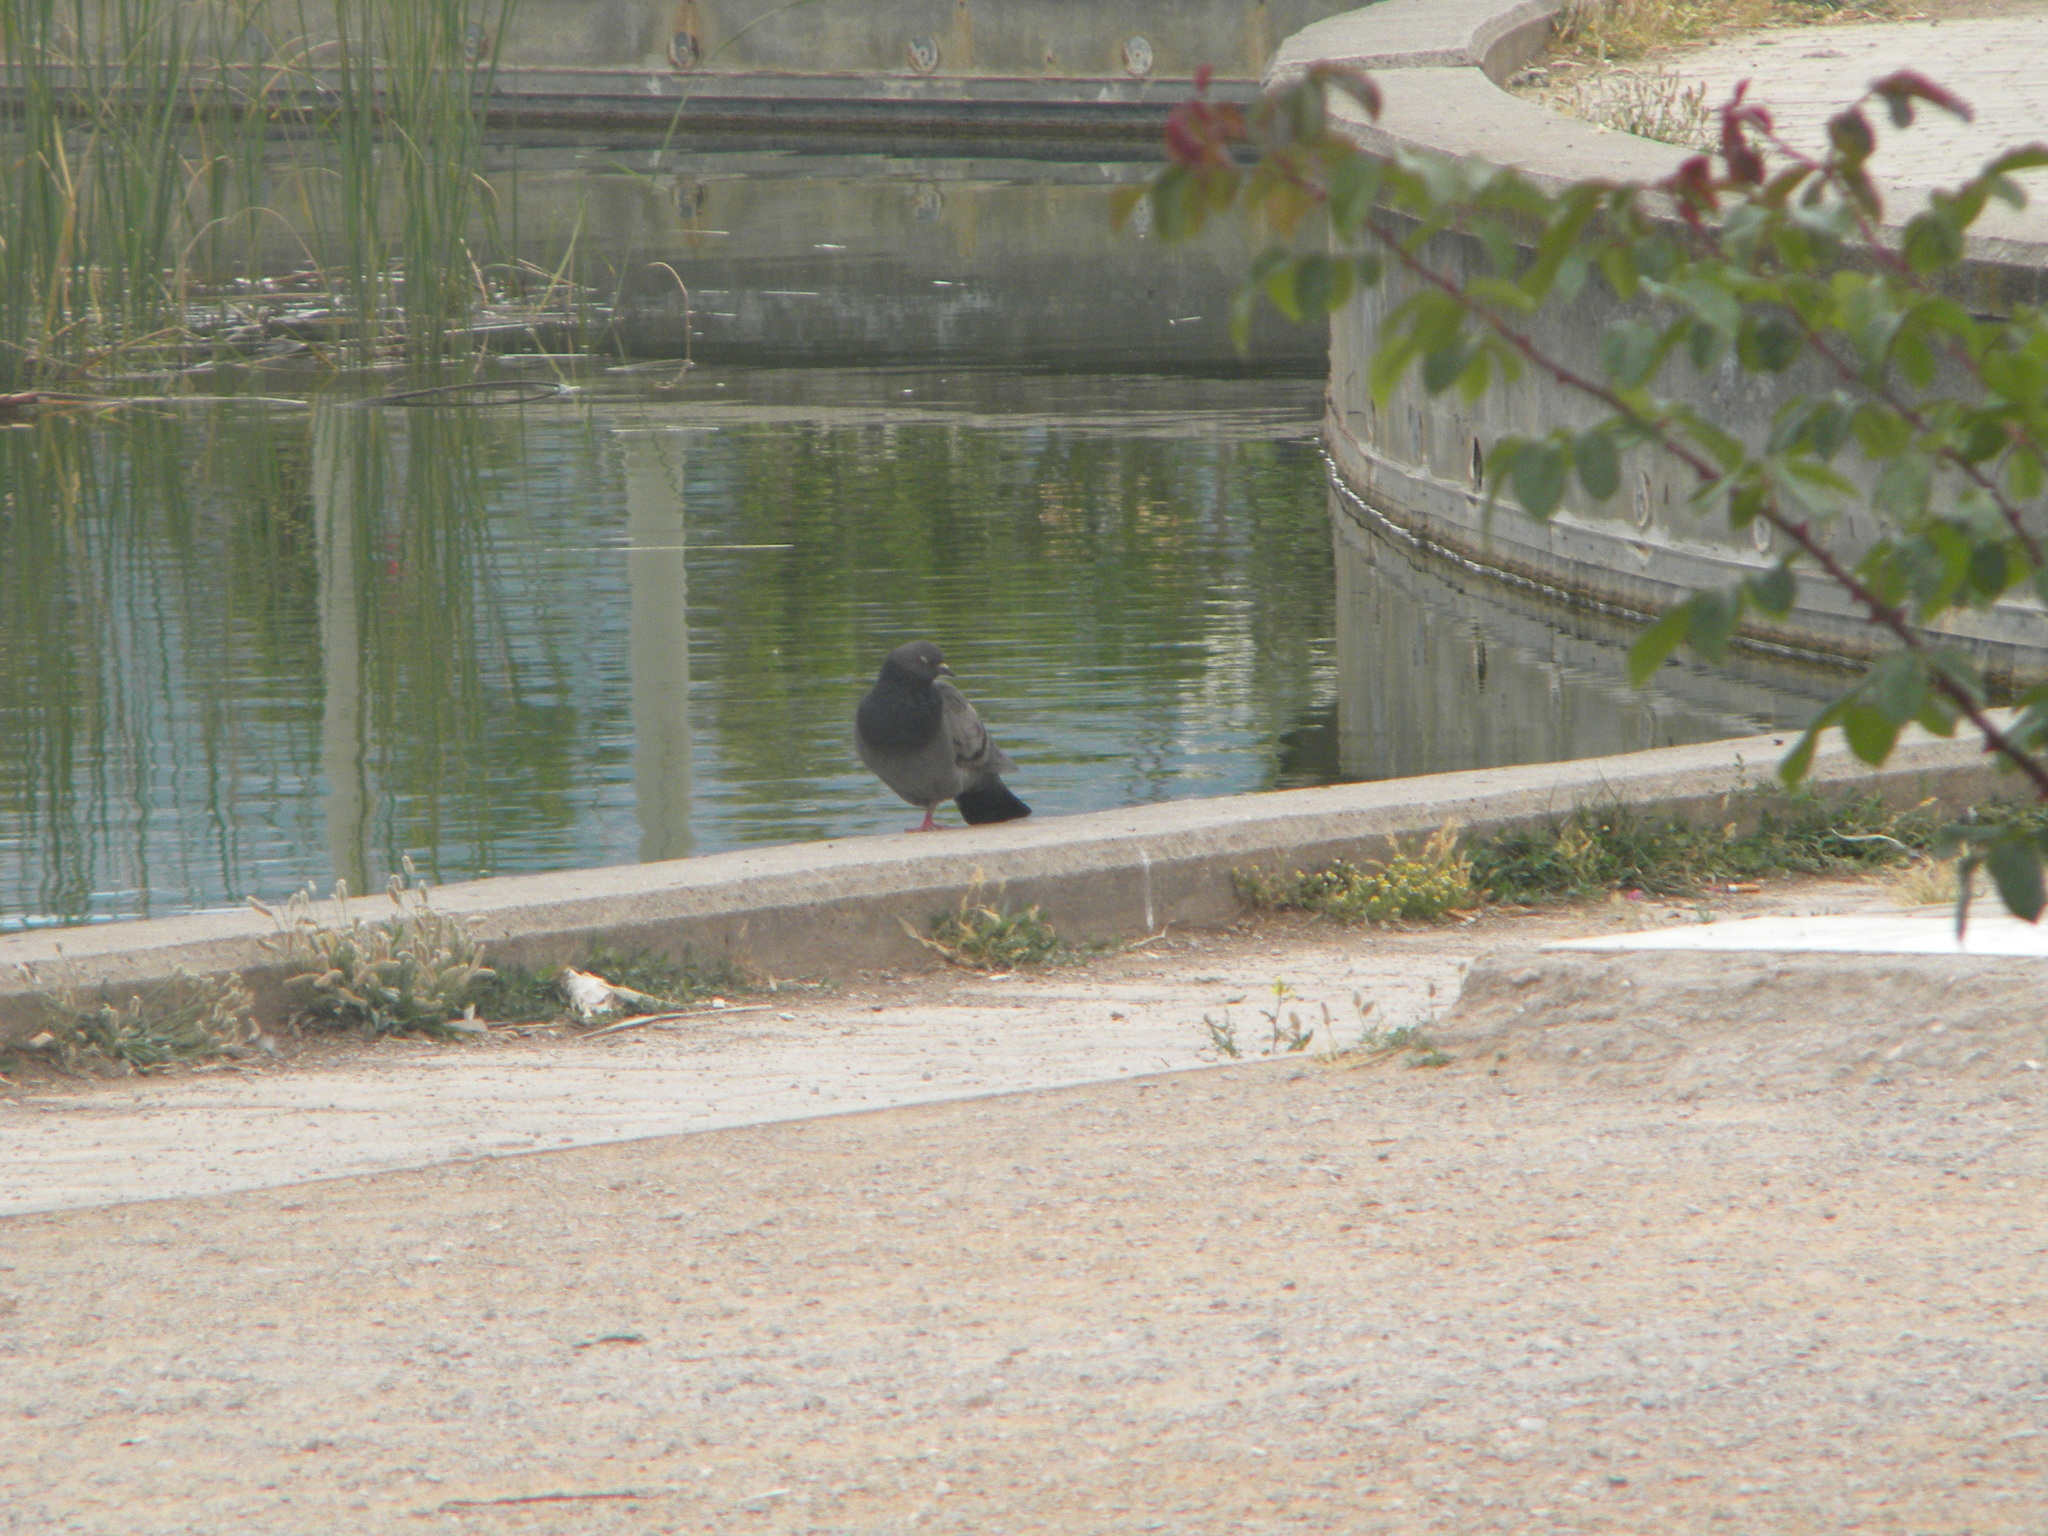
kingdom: Animalia
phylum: Chordata
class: Aves
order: Columbiformes
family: Columbidae
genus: Columba
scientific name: Columba livia
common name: Rock pigeon
